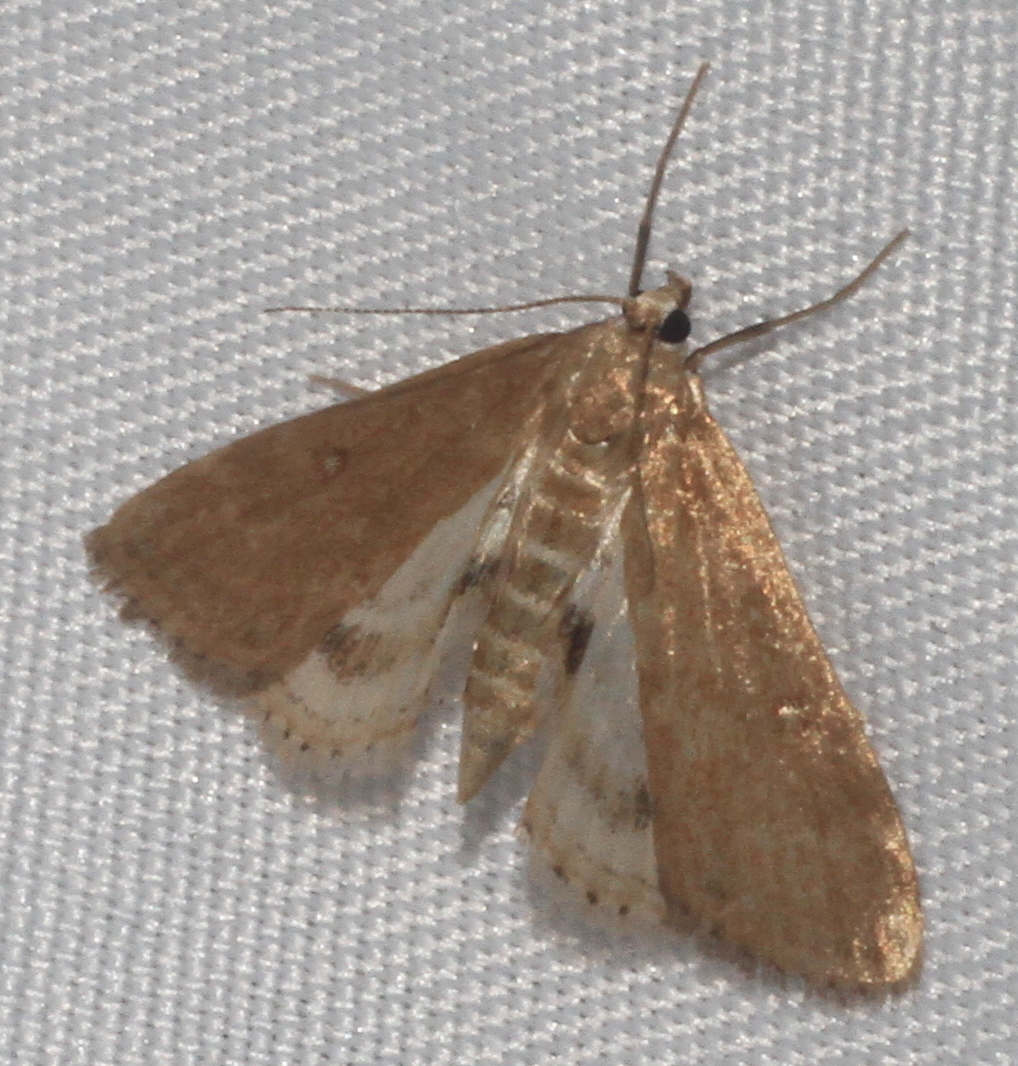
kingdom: Animalia
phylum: Arthropoda
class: Insecta
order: Lepidoptera
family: Crambidae
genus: Parapoynx
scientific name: Parapoynx stratiotata
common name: Ringed china-mark
